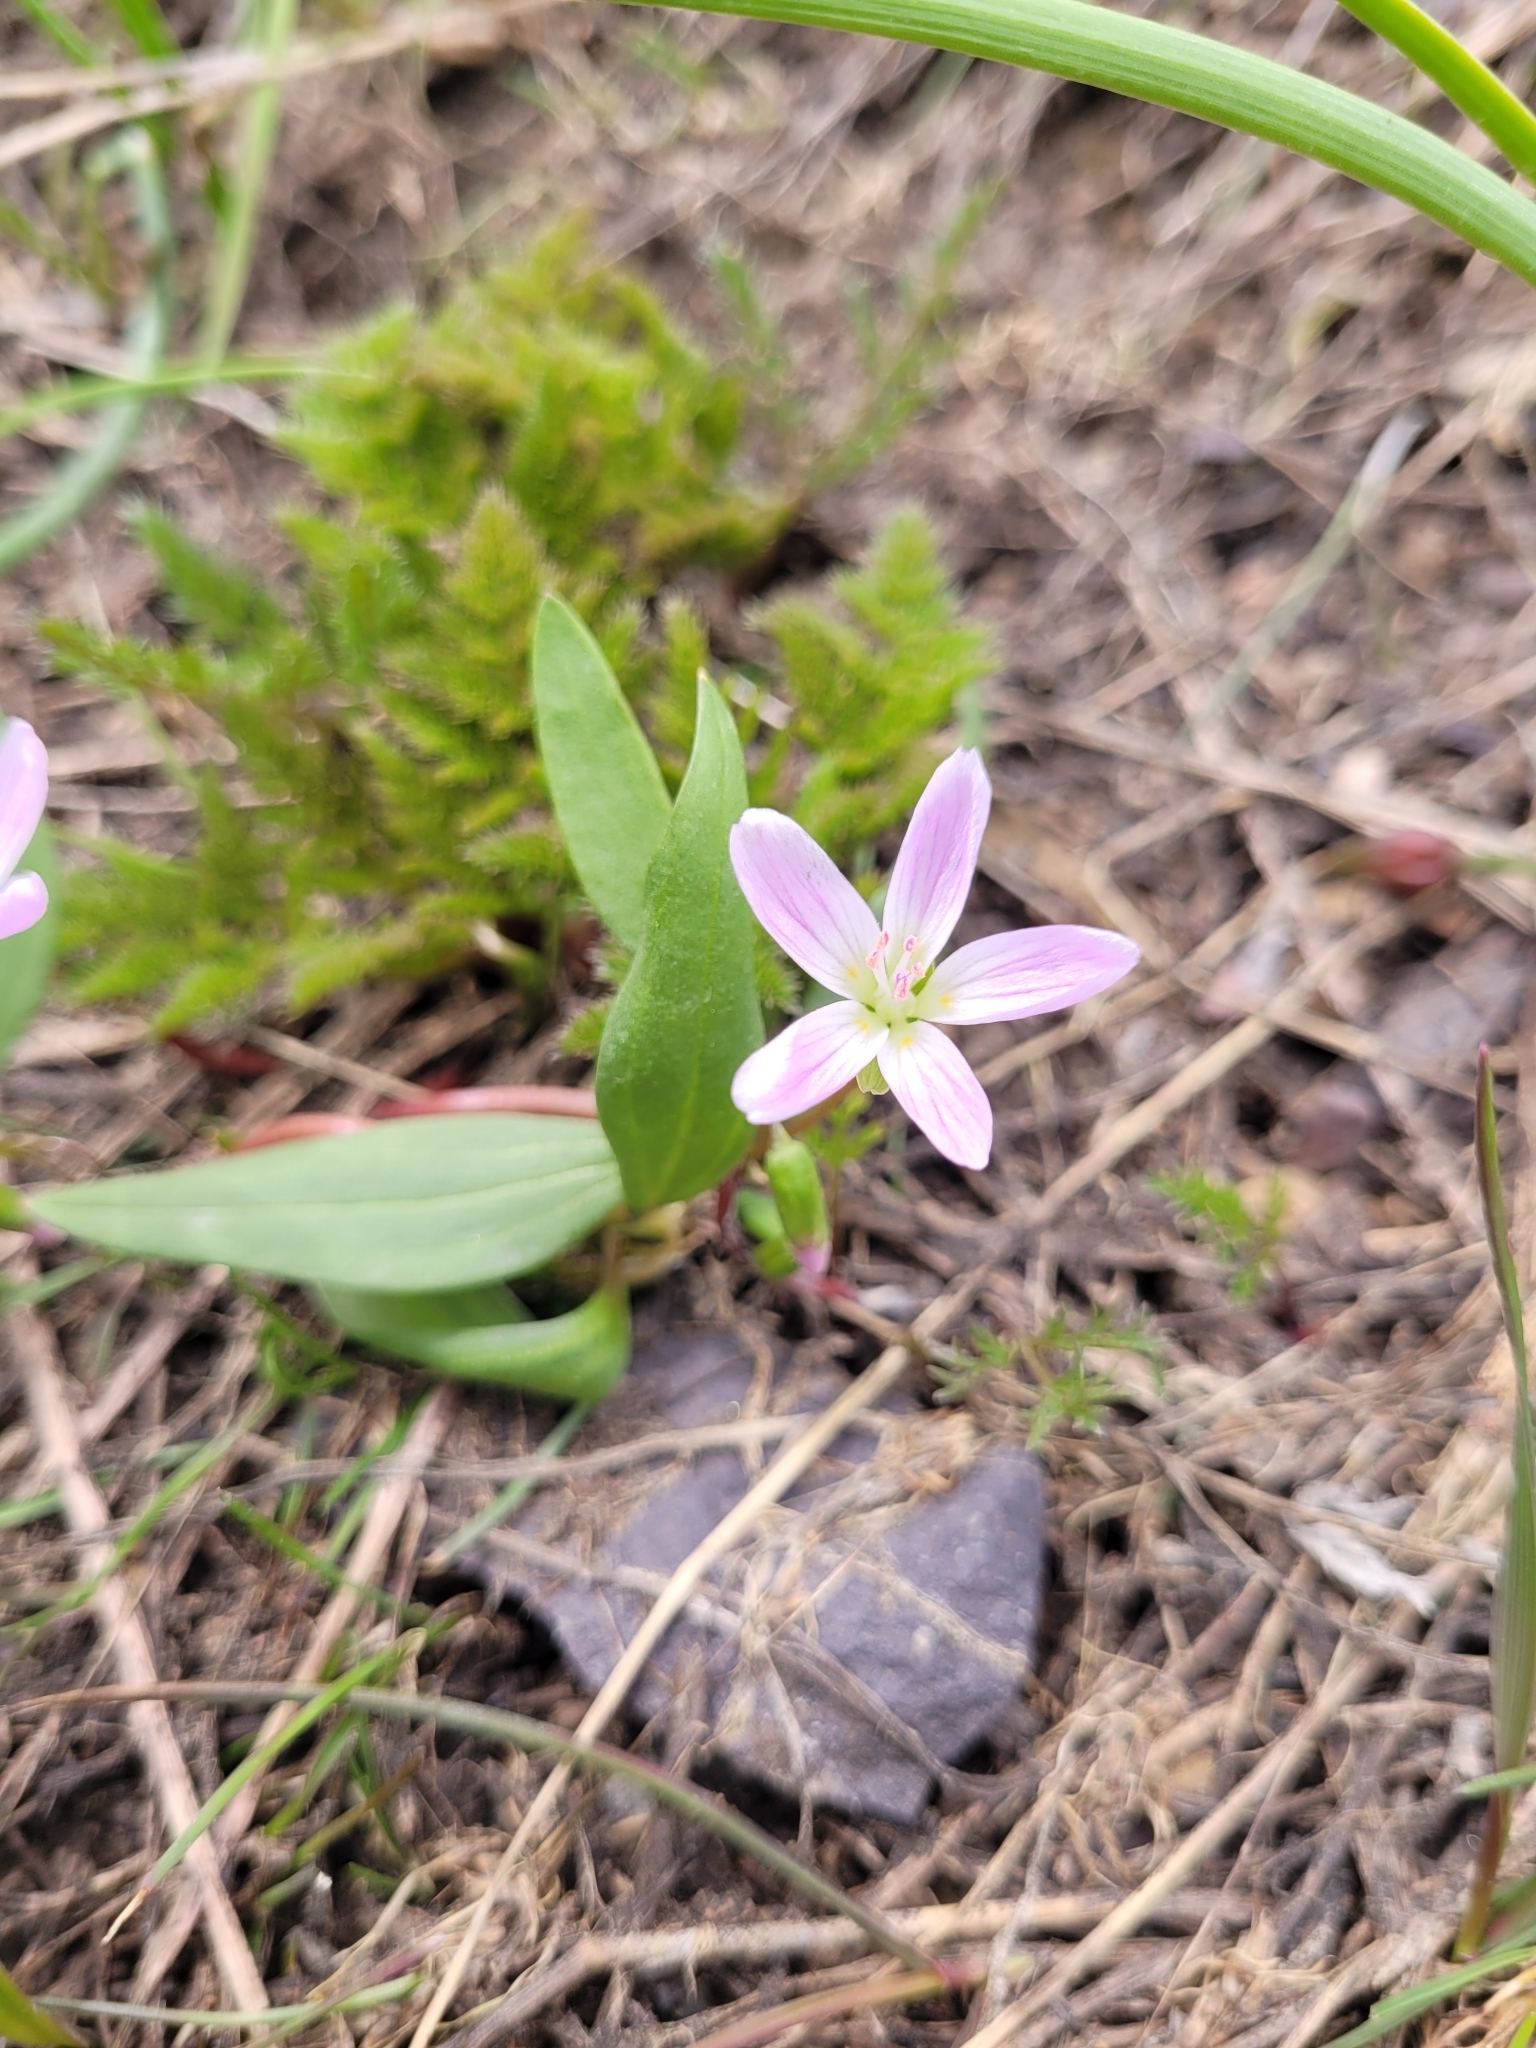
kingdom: Plantae
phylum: Tracheophyta
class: Magnoliopsida
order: Caryophyllales
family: Montiaceae
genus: Claytonia
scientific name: Claytonia lanceolata
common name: Western spring-beauty
